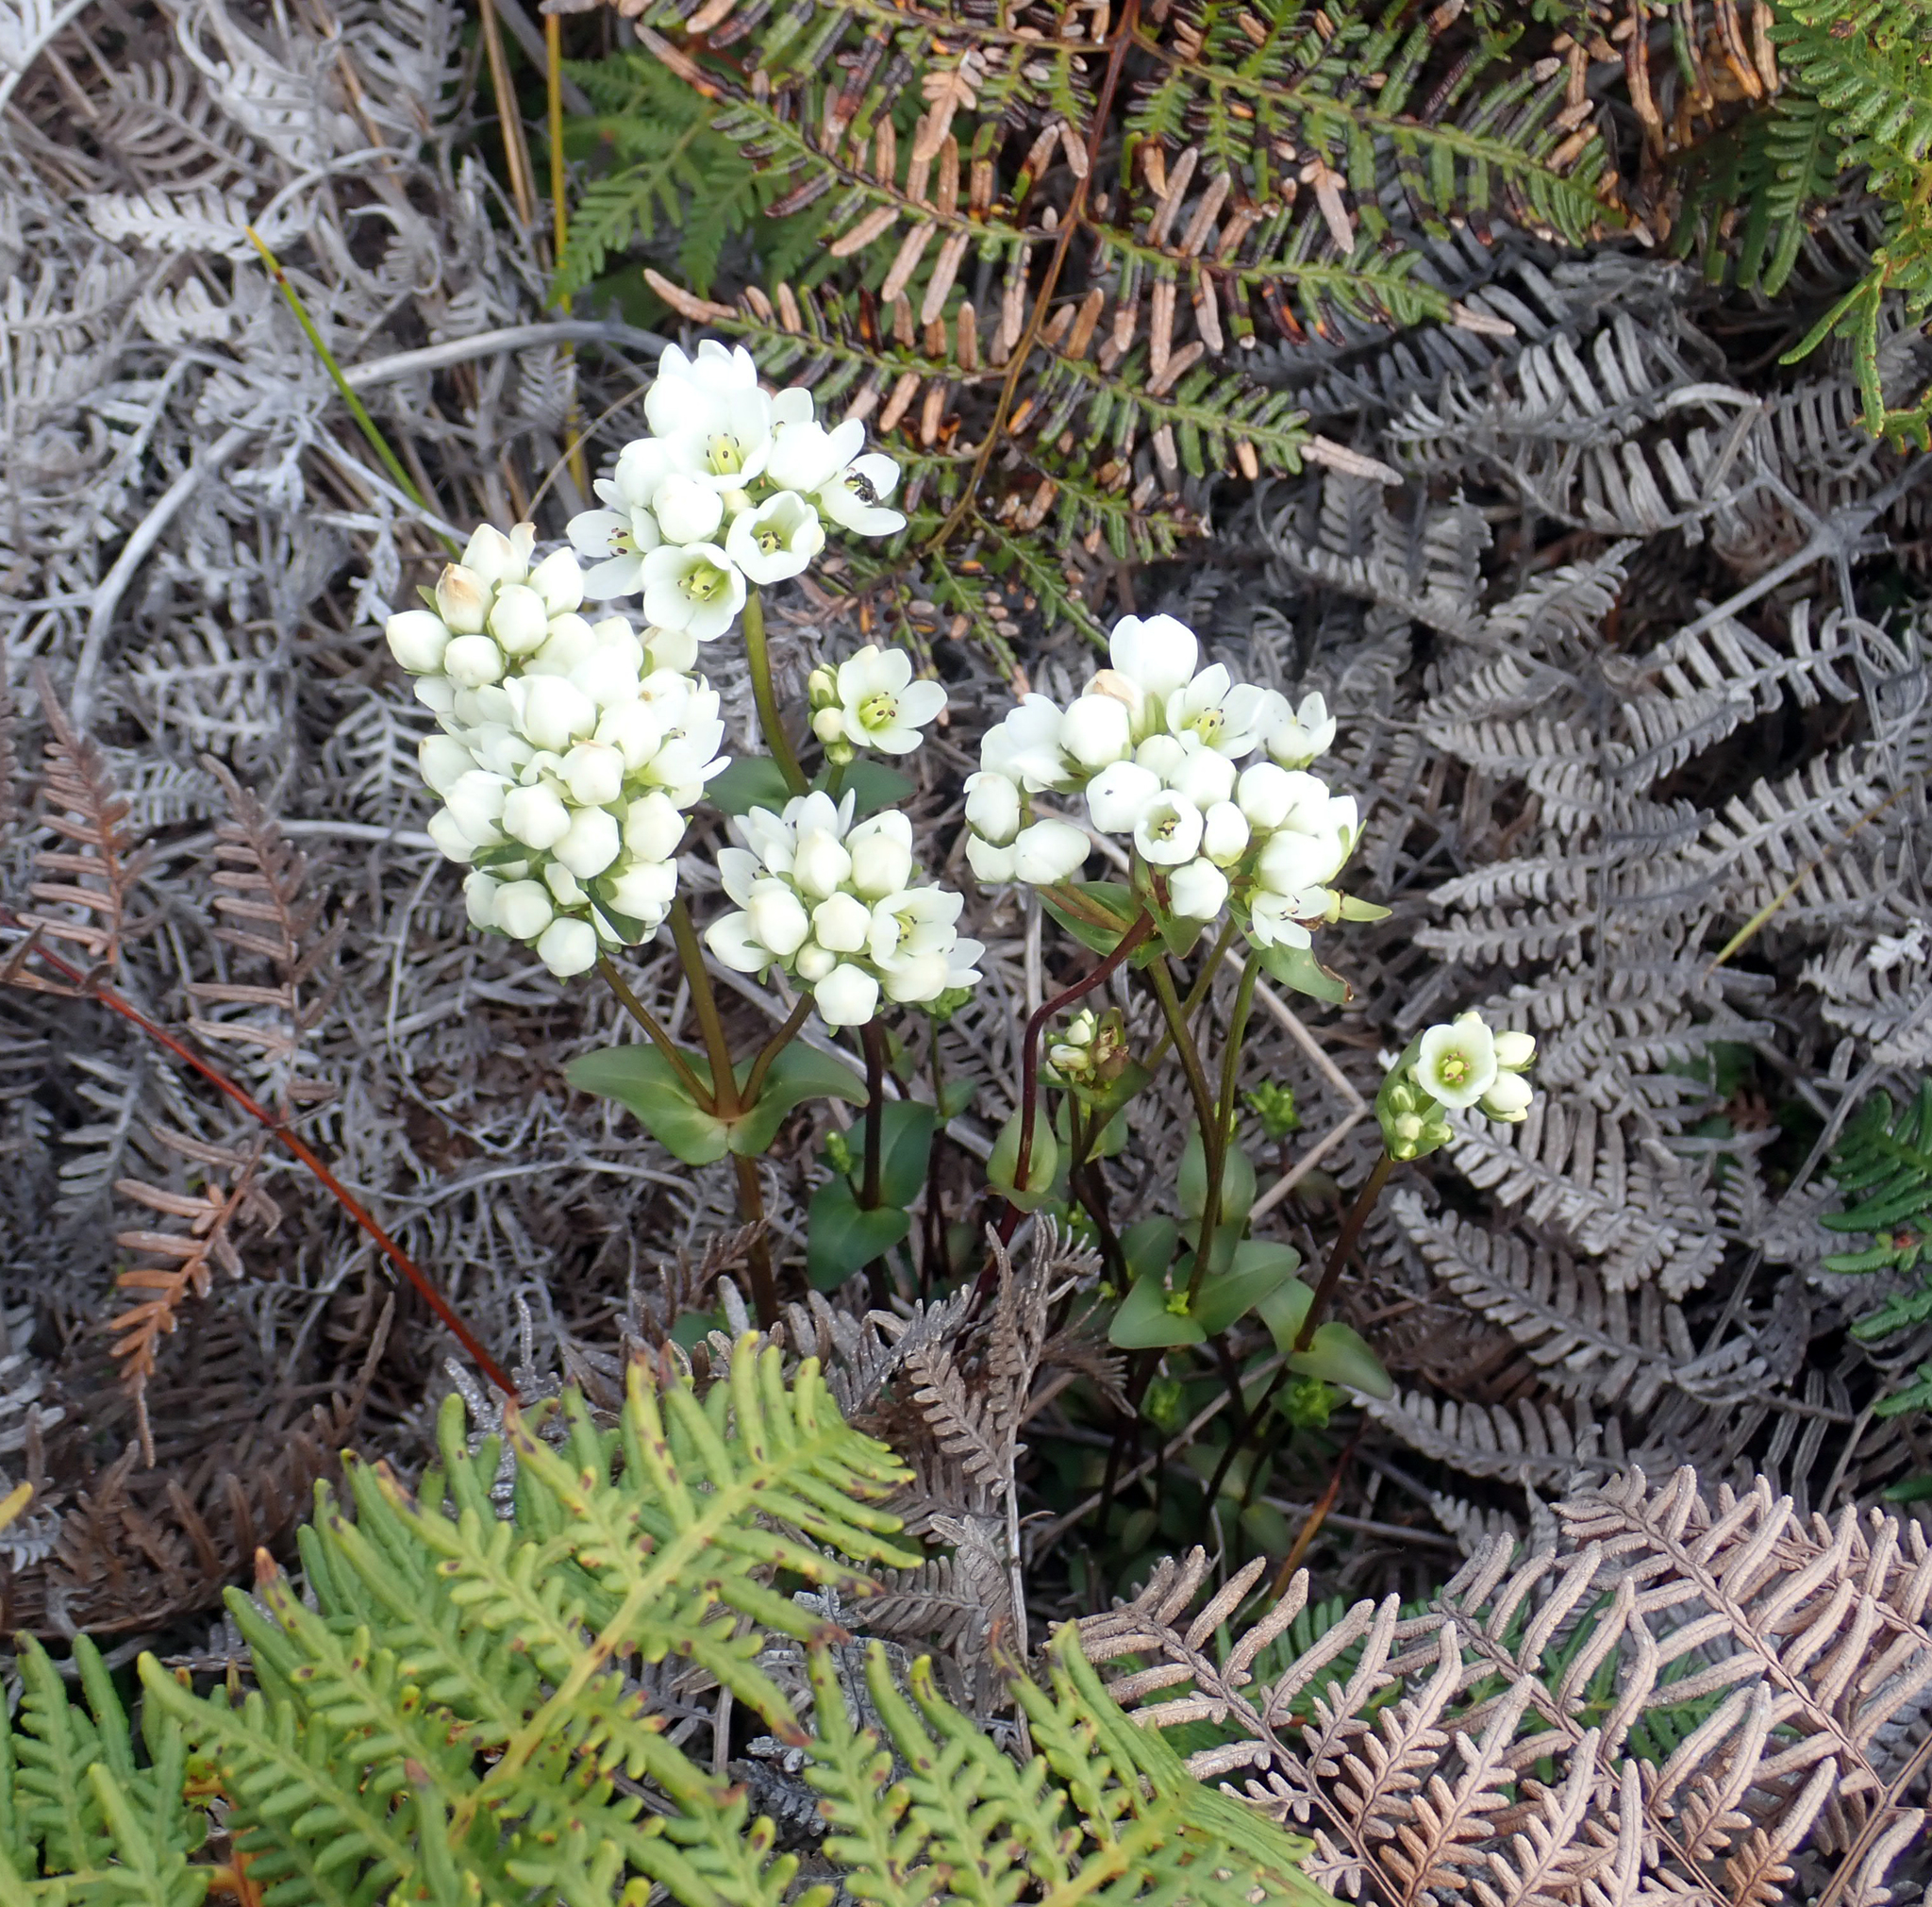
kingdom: Plantae
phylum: Tracheophyta
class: Magnoliopsida
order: Gentianales
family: Gentianaceae
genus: Gentianella
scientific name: Gentianella chathamica
